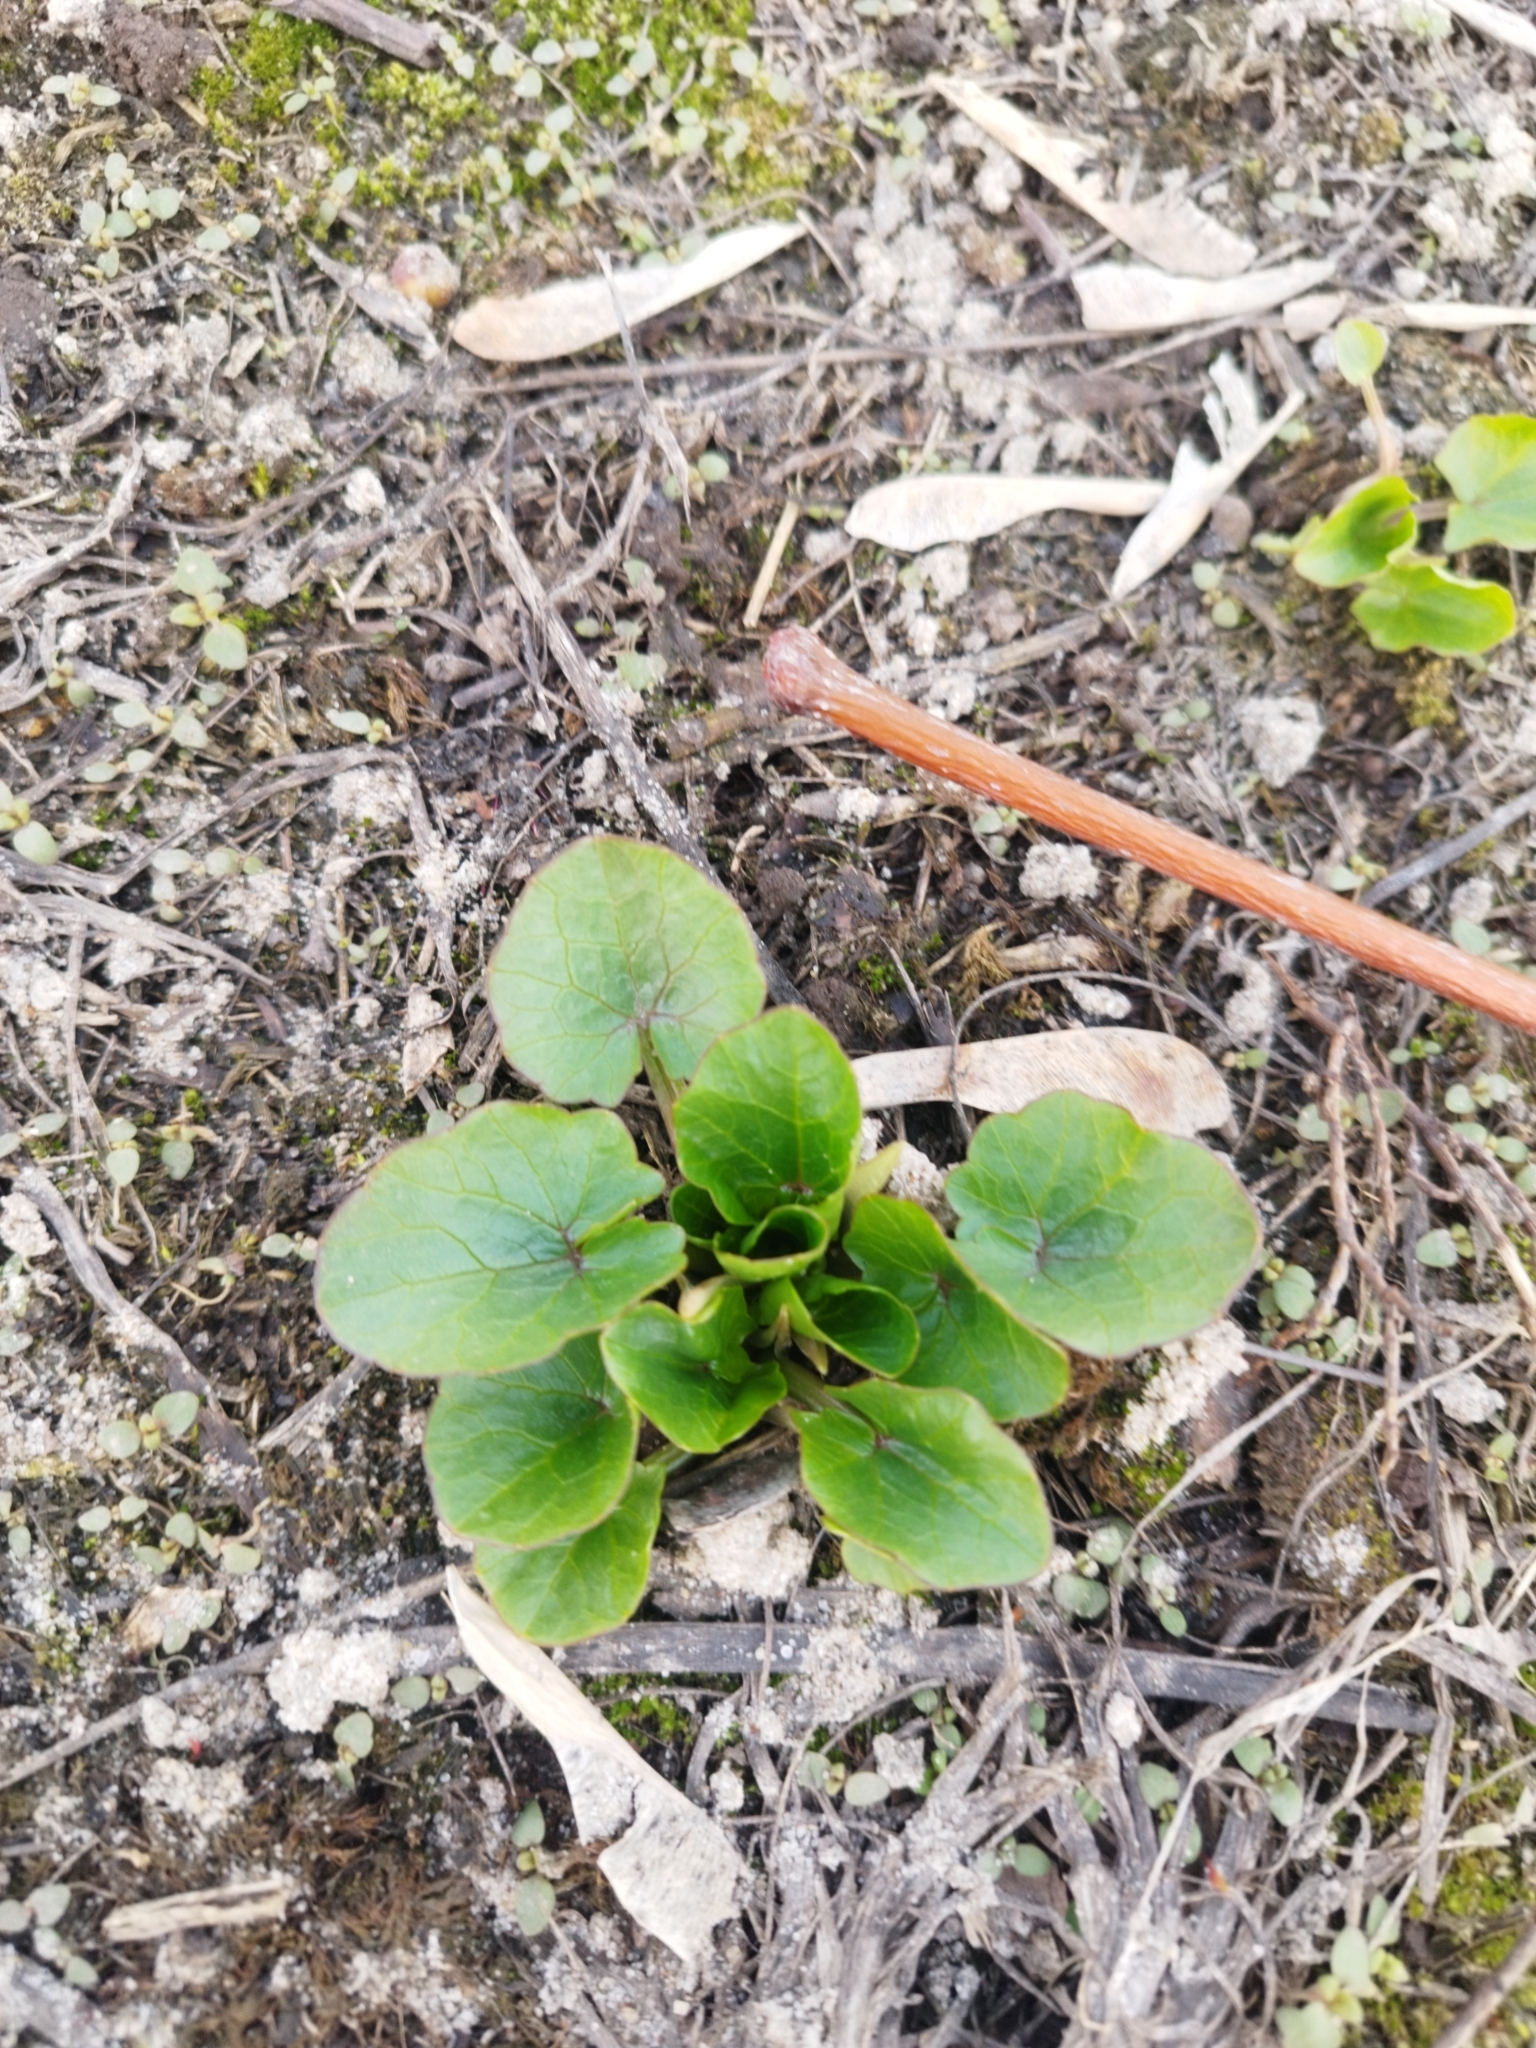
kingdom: Plantae
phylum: Tracheophyta
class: Magnoliopsida
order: Ranunculales
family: Ranunculaceae
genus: Ficaria
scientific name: Ficaria verna
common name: Lesser celandine
